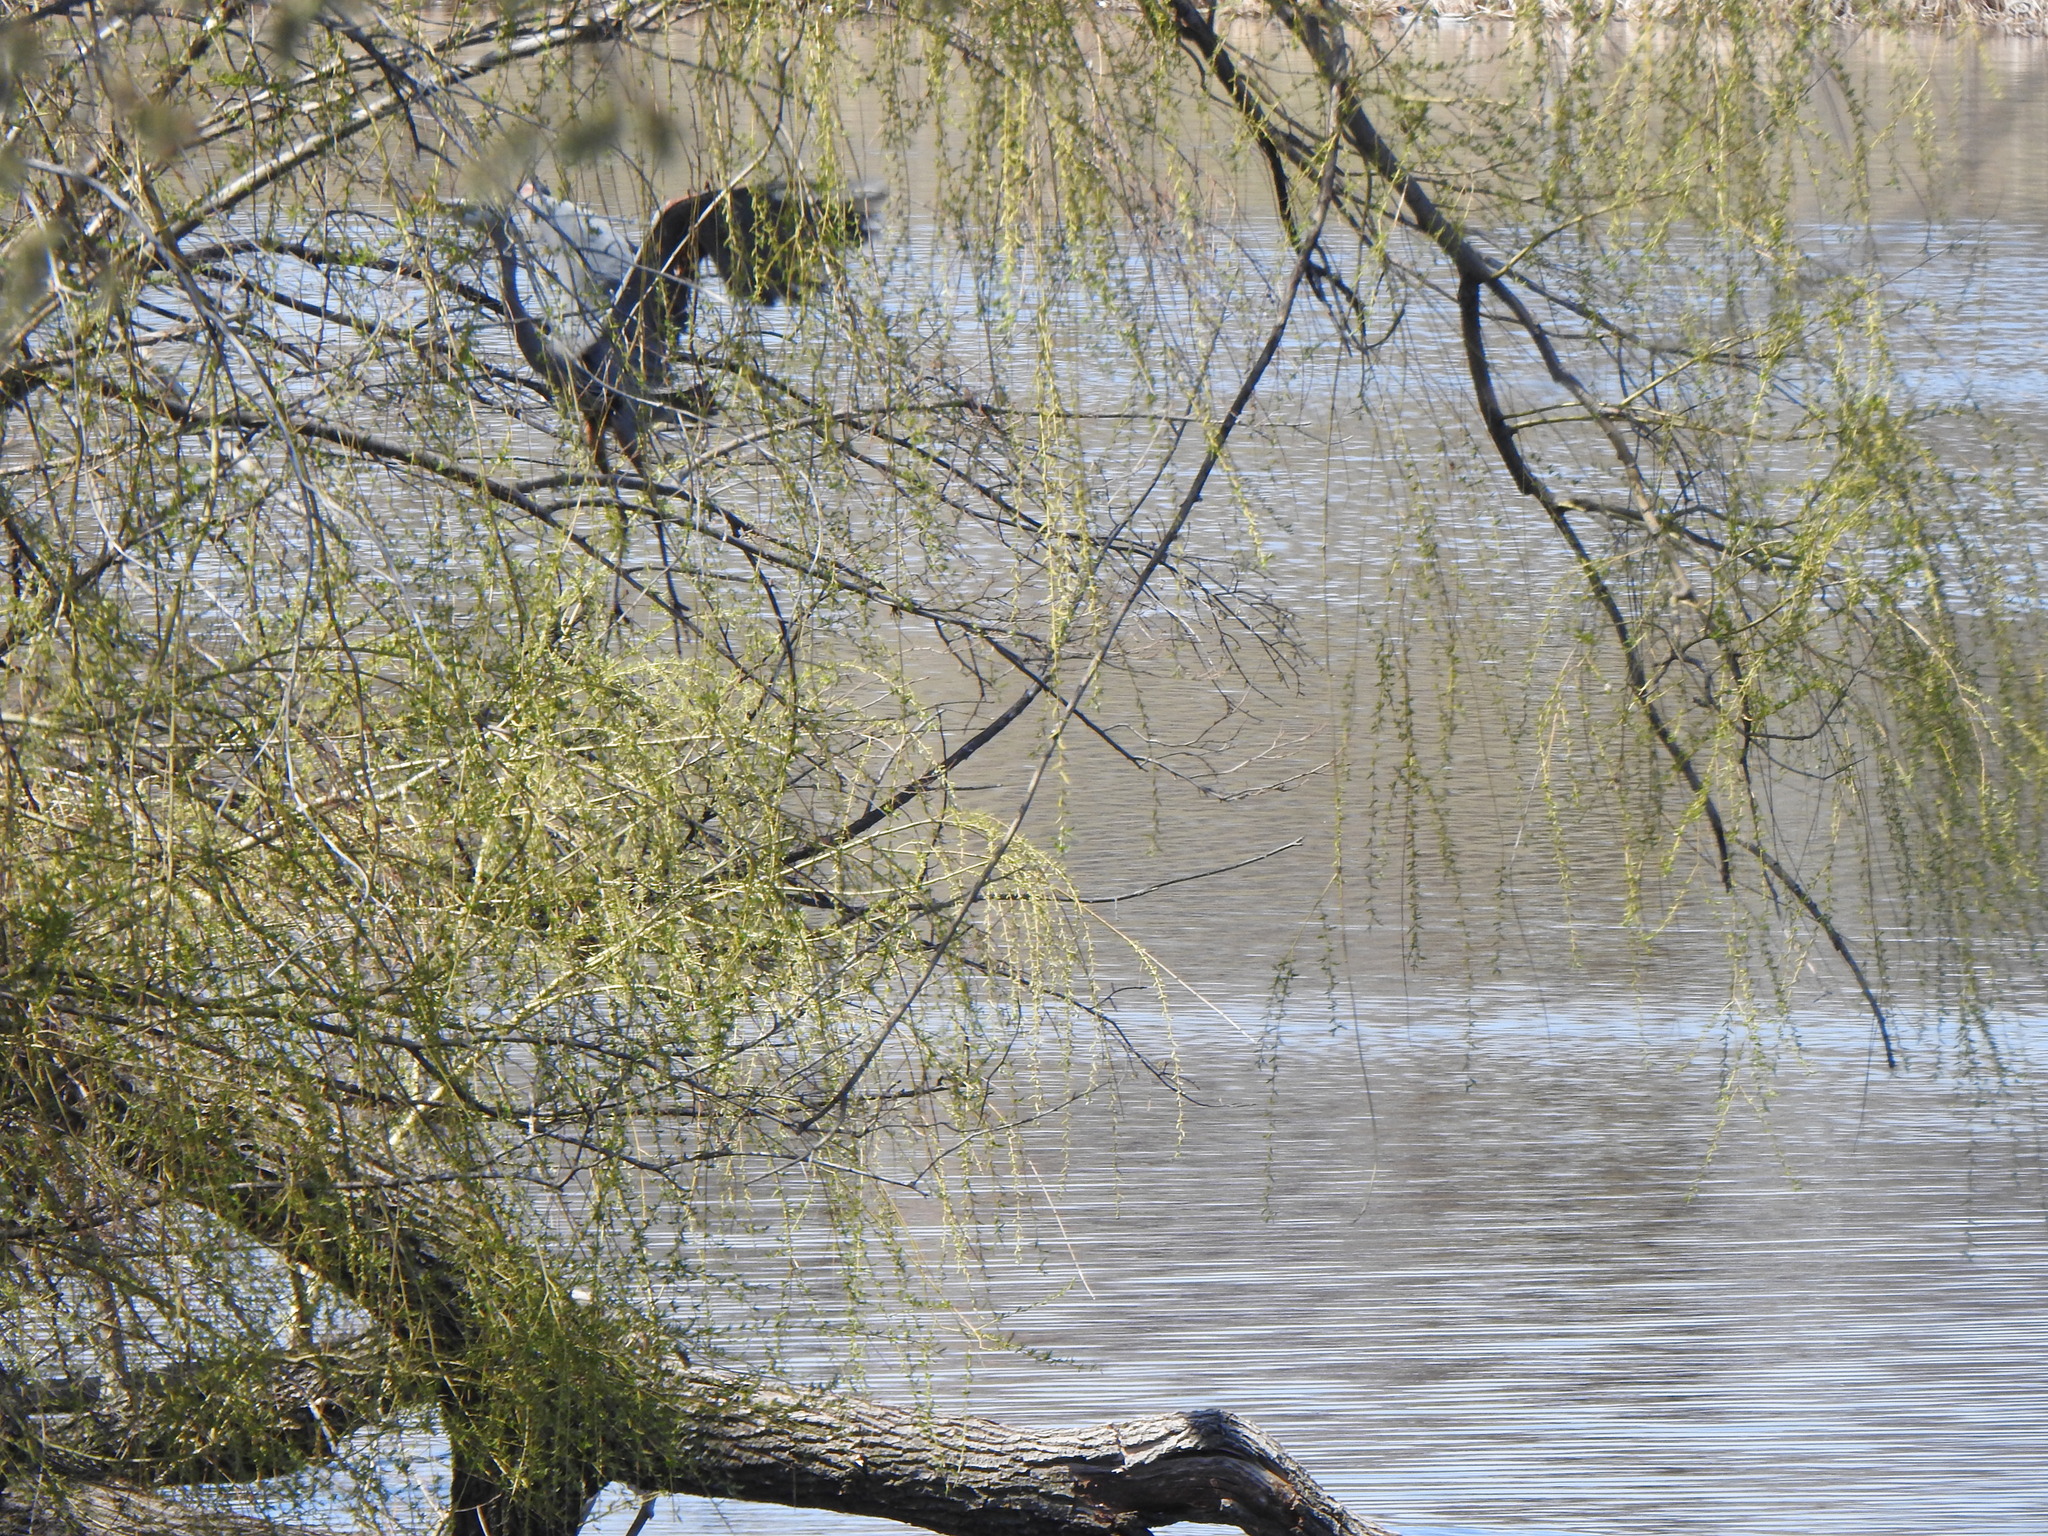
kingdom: Animalia
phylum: Chordata
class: Aves
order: Pelecaniformes
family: Ardeidae
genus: Ardea
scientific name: Ardea herodias
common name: Great blue heron
